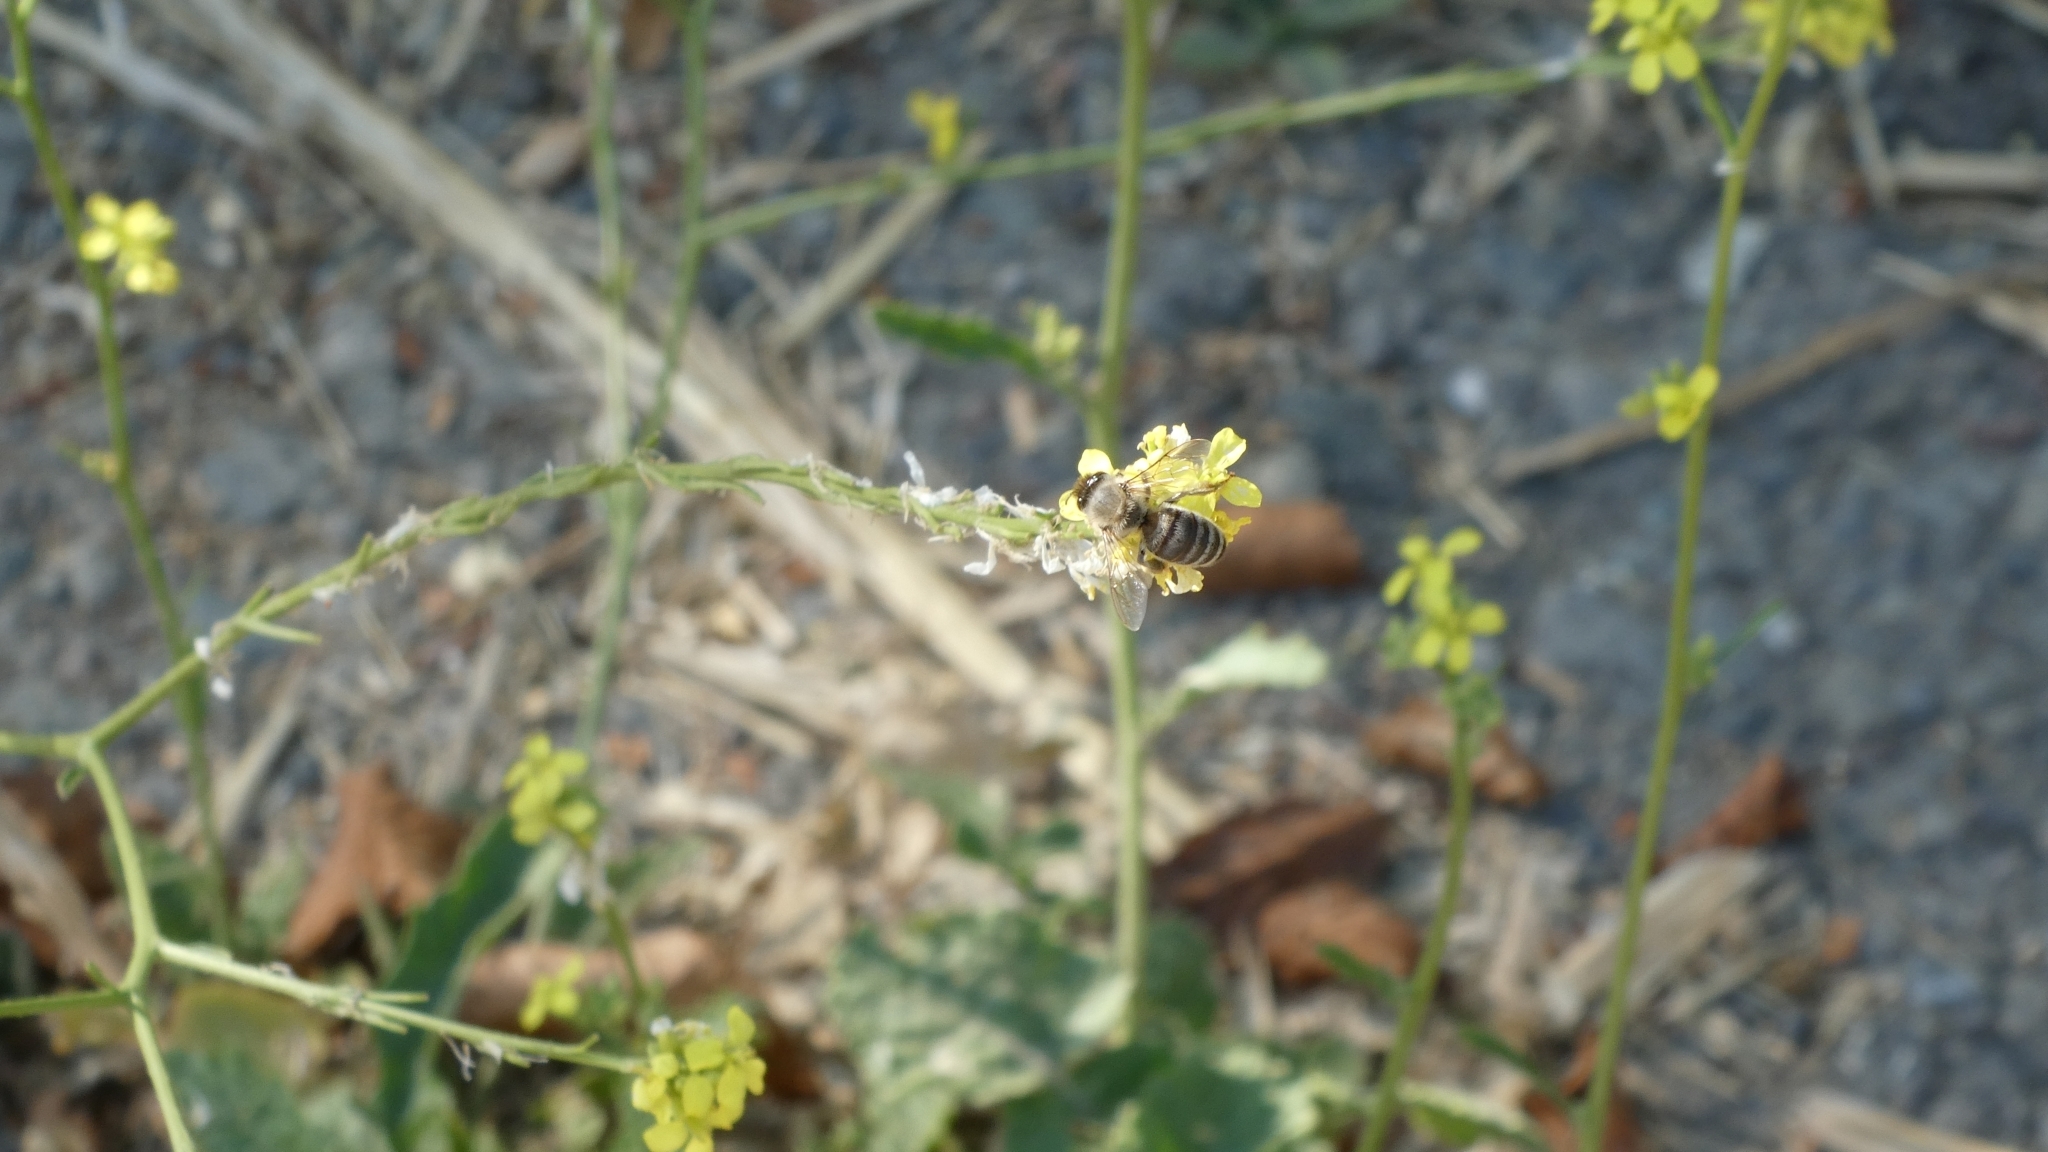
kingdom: Animalia
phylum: Arthropoda
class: Insecta
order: Hymenoptera
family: Apidae
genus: Apis
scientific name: Apis mellifera
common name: Honey bee
